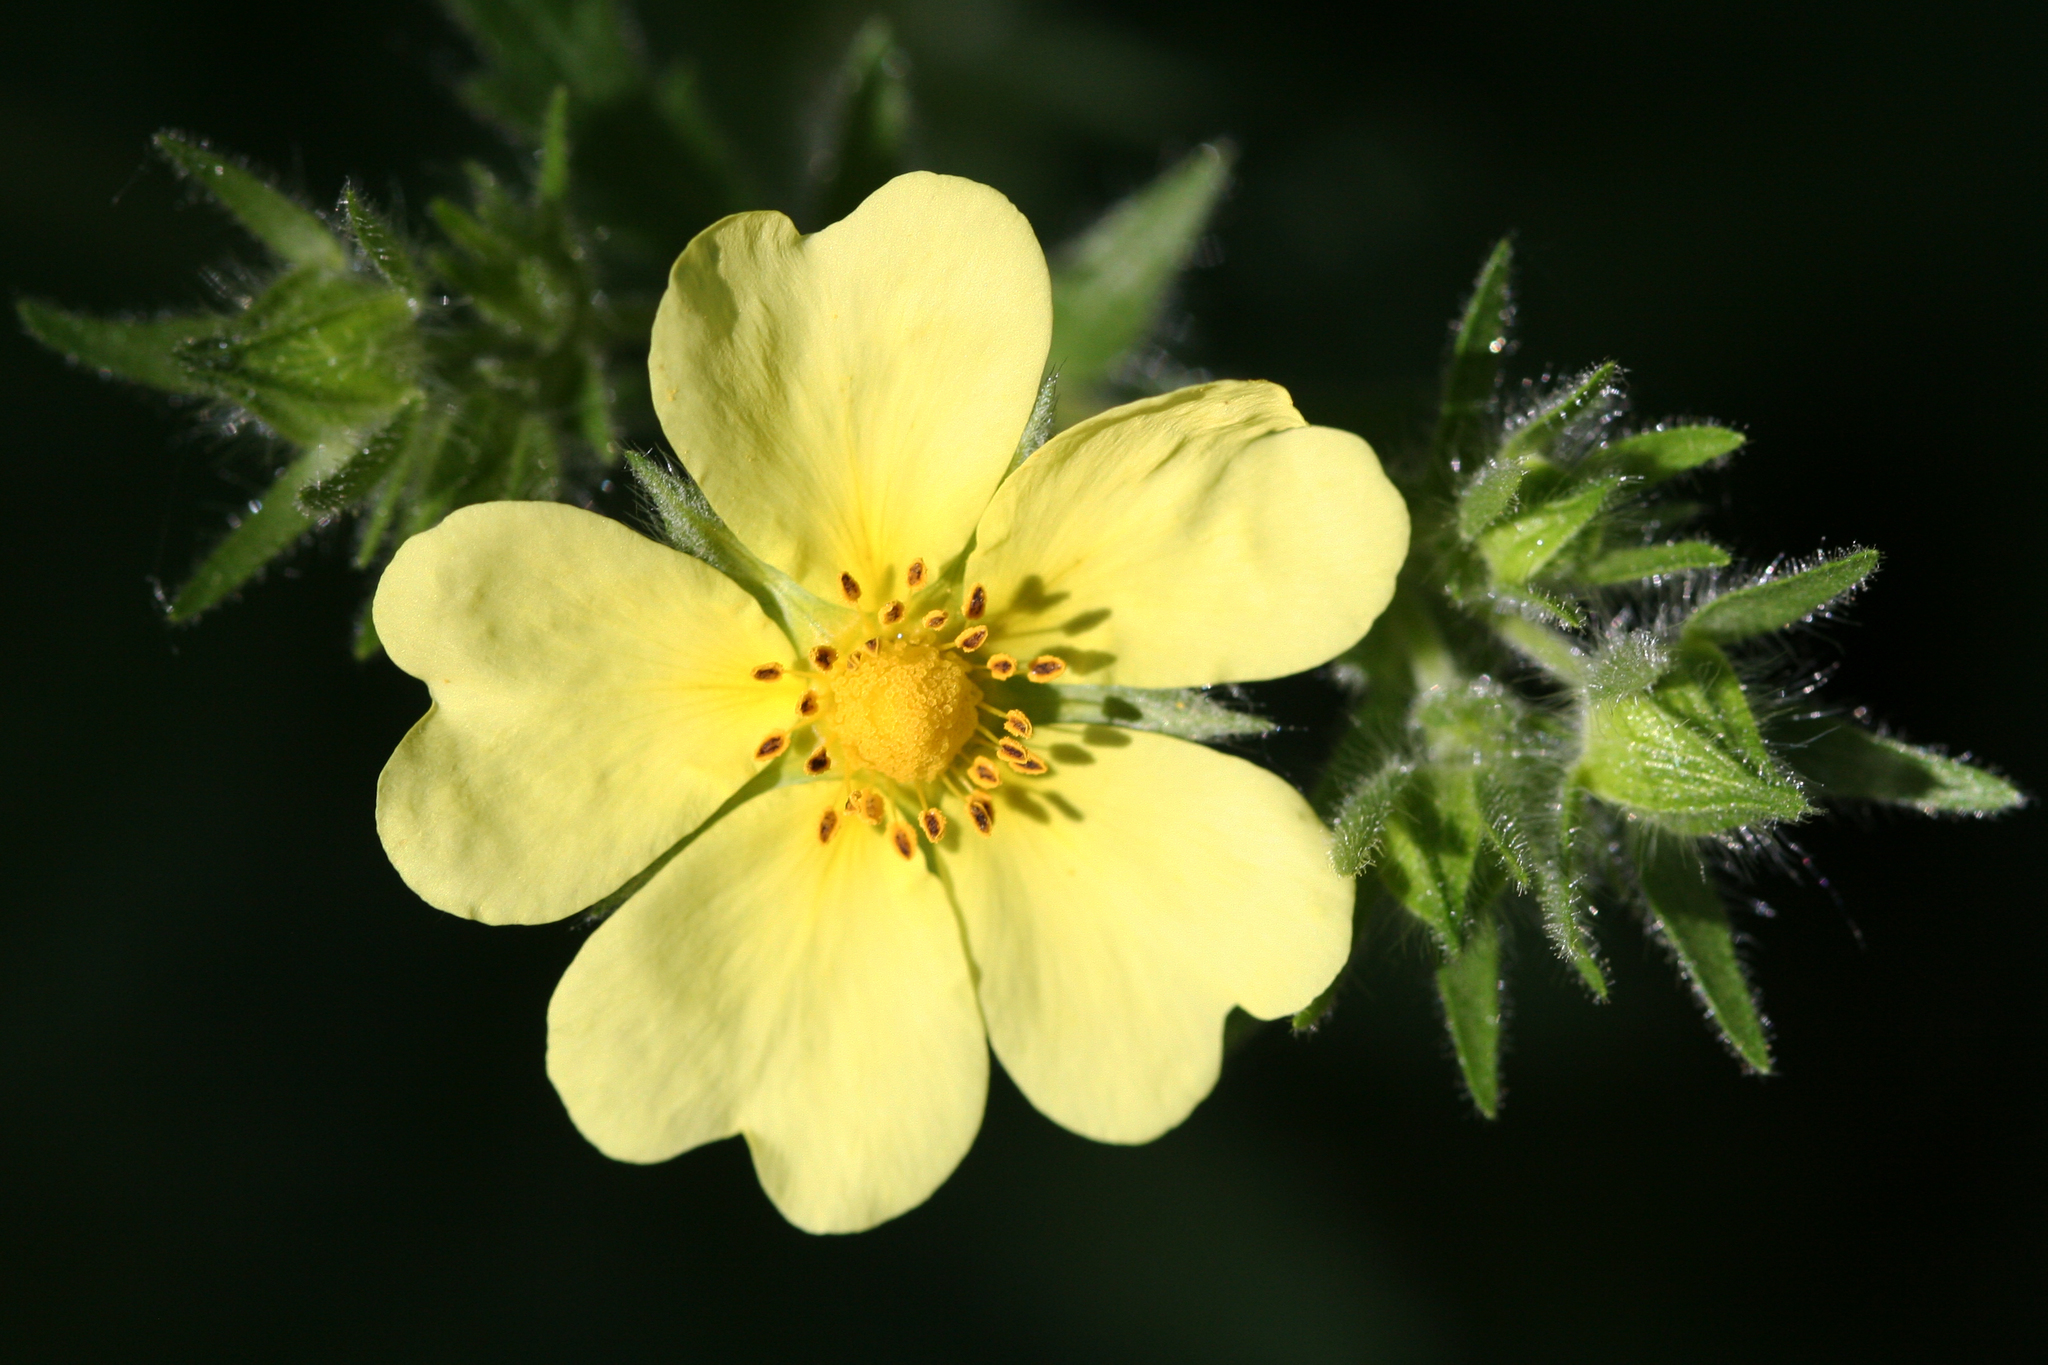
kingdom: Plantae
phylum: Tracheophyta
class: Magnoliopsida
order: Rosales
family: Rosaceae
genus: Potentilla
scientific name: Potentilla recta
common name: Sulphur cinquefoil
